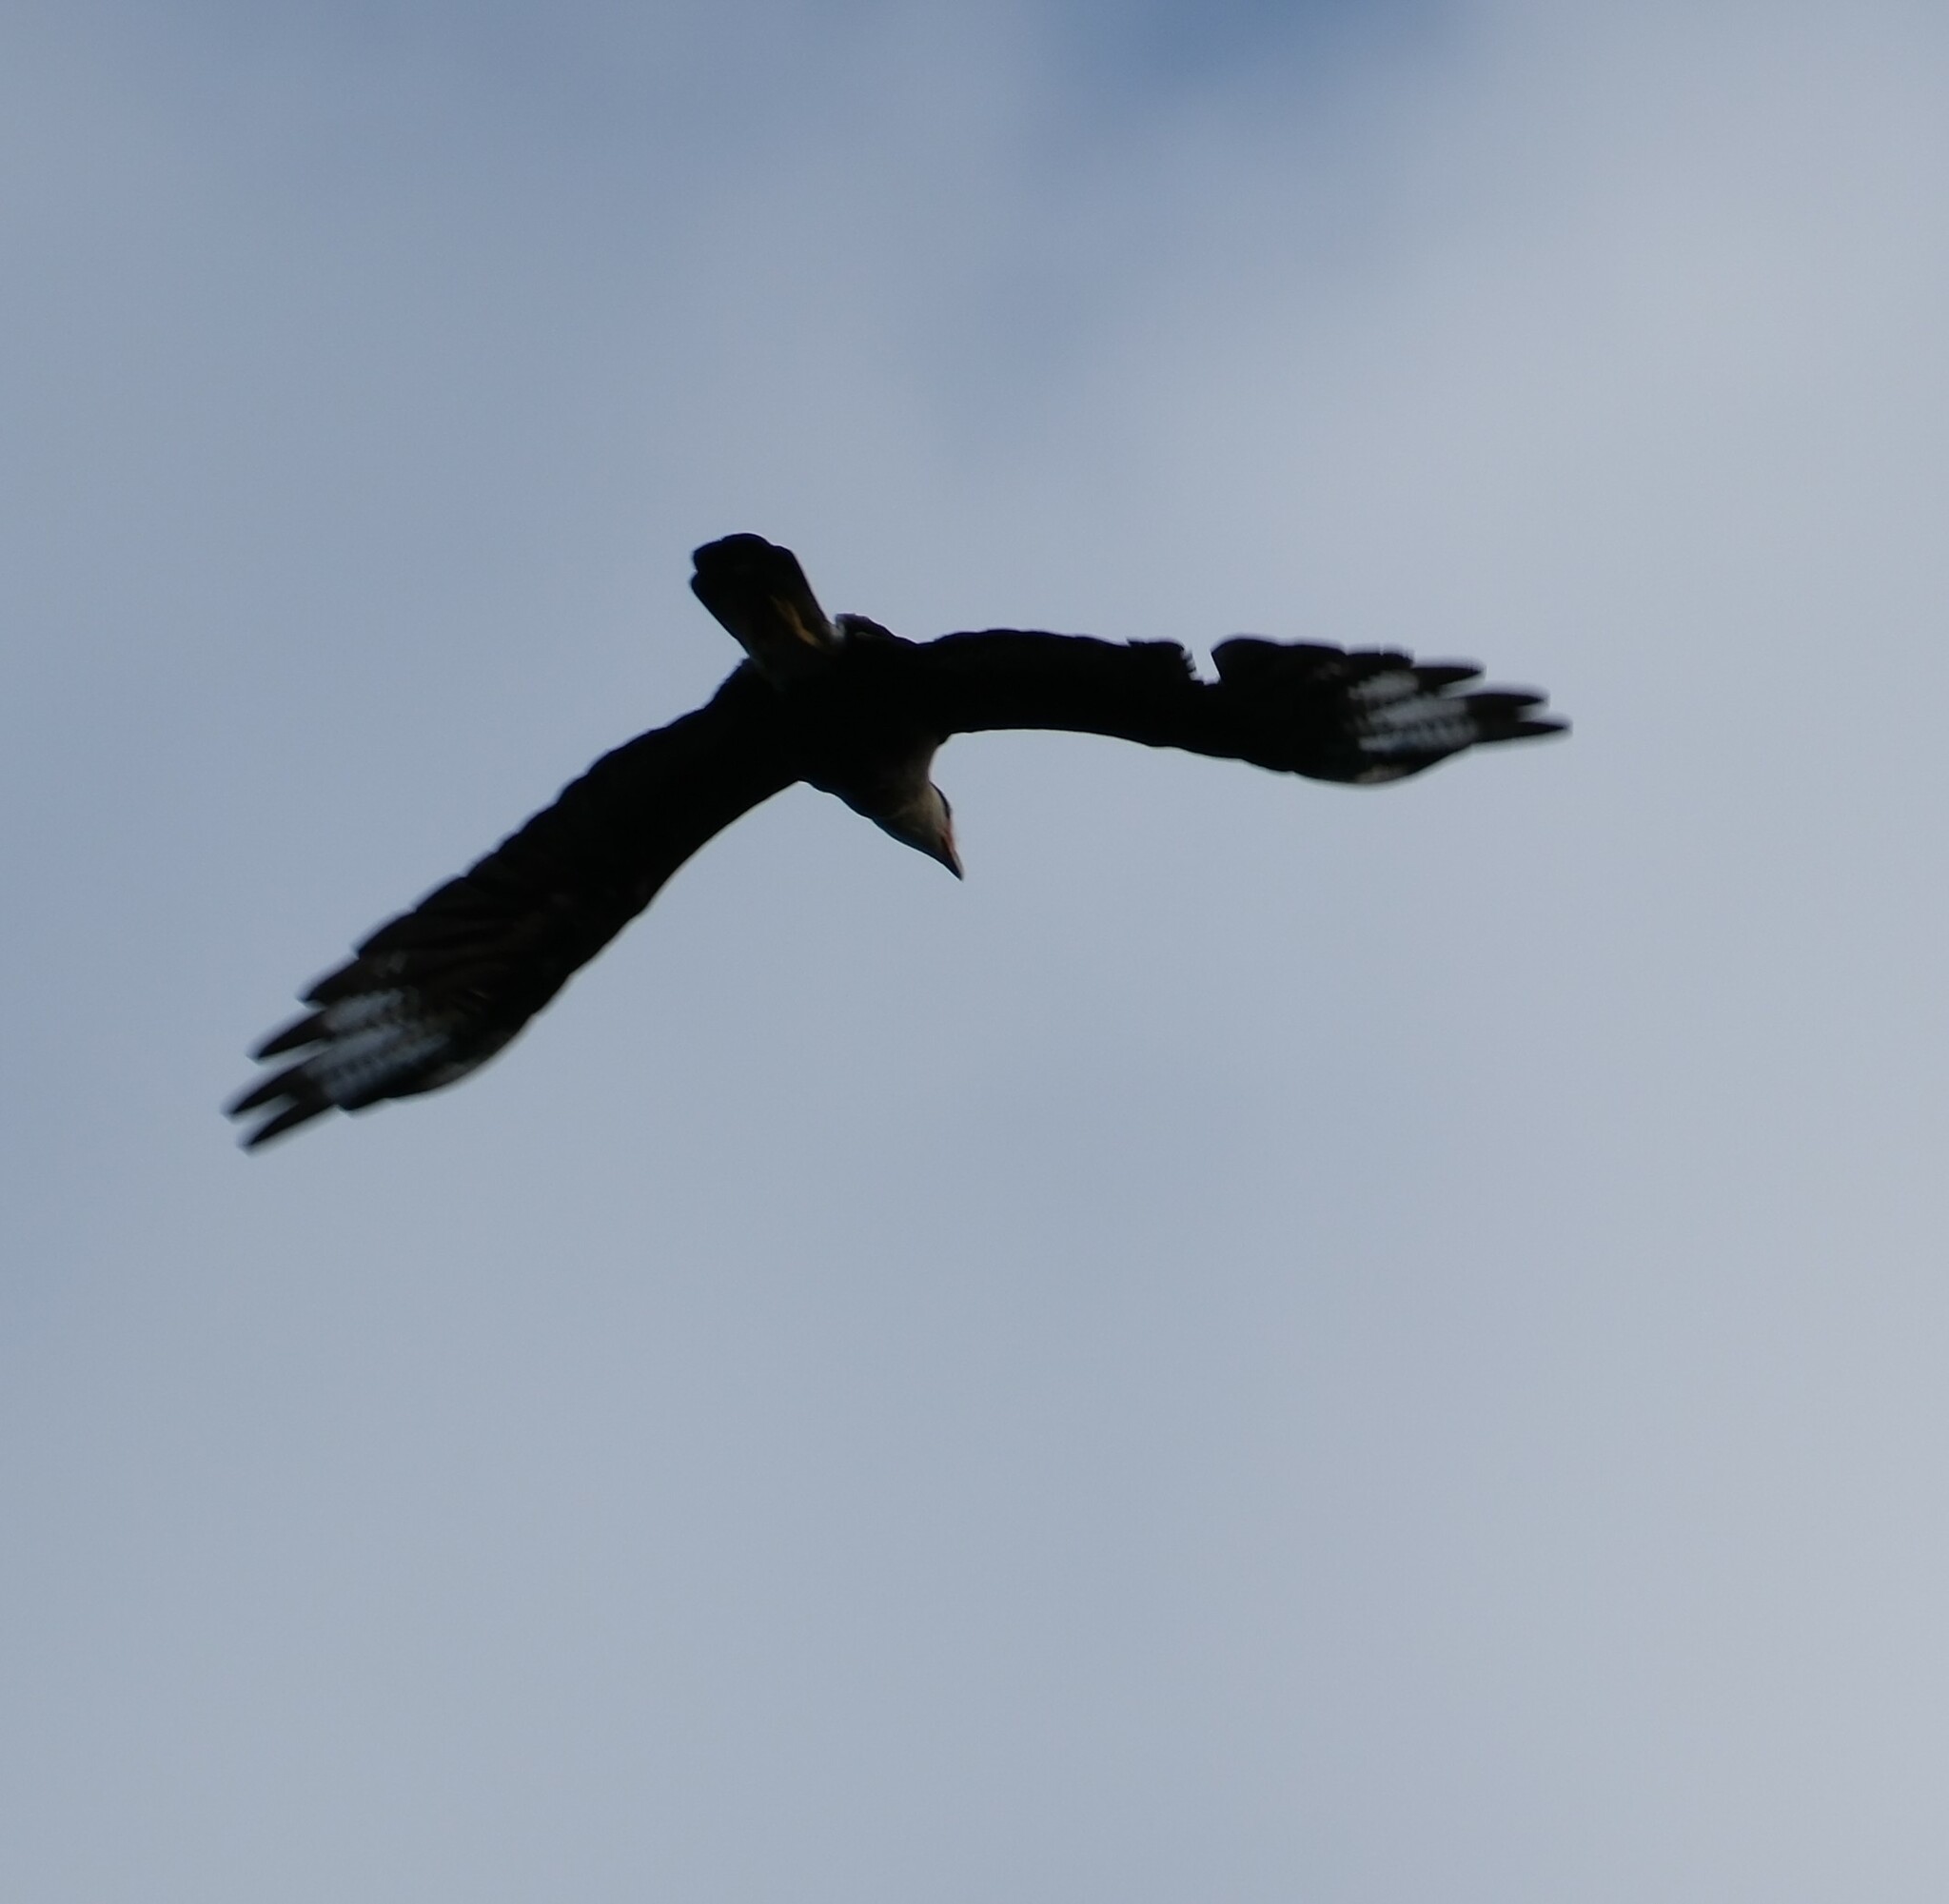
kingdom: Animalia
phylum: Chordata
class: Aves
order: Falconiformes
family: Falconidae
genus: Caracara
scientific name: Caracara plancus
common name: Southern caracara
